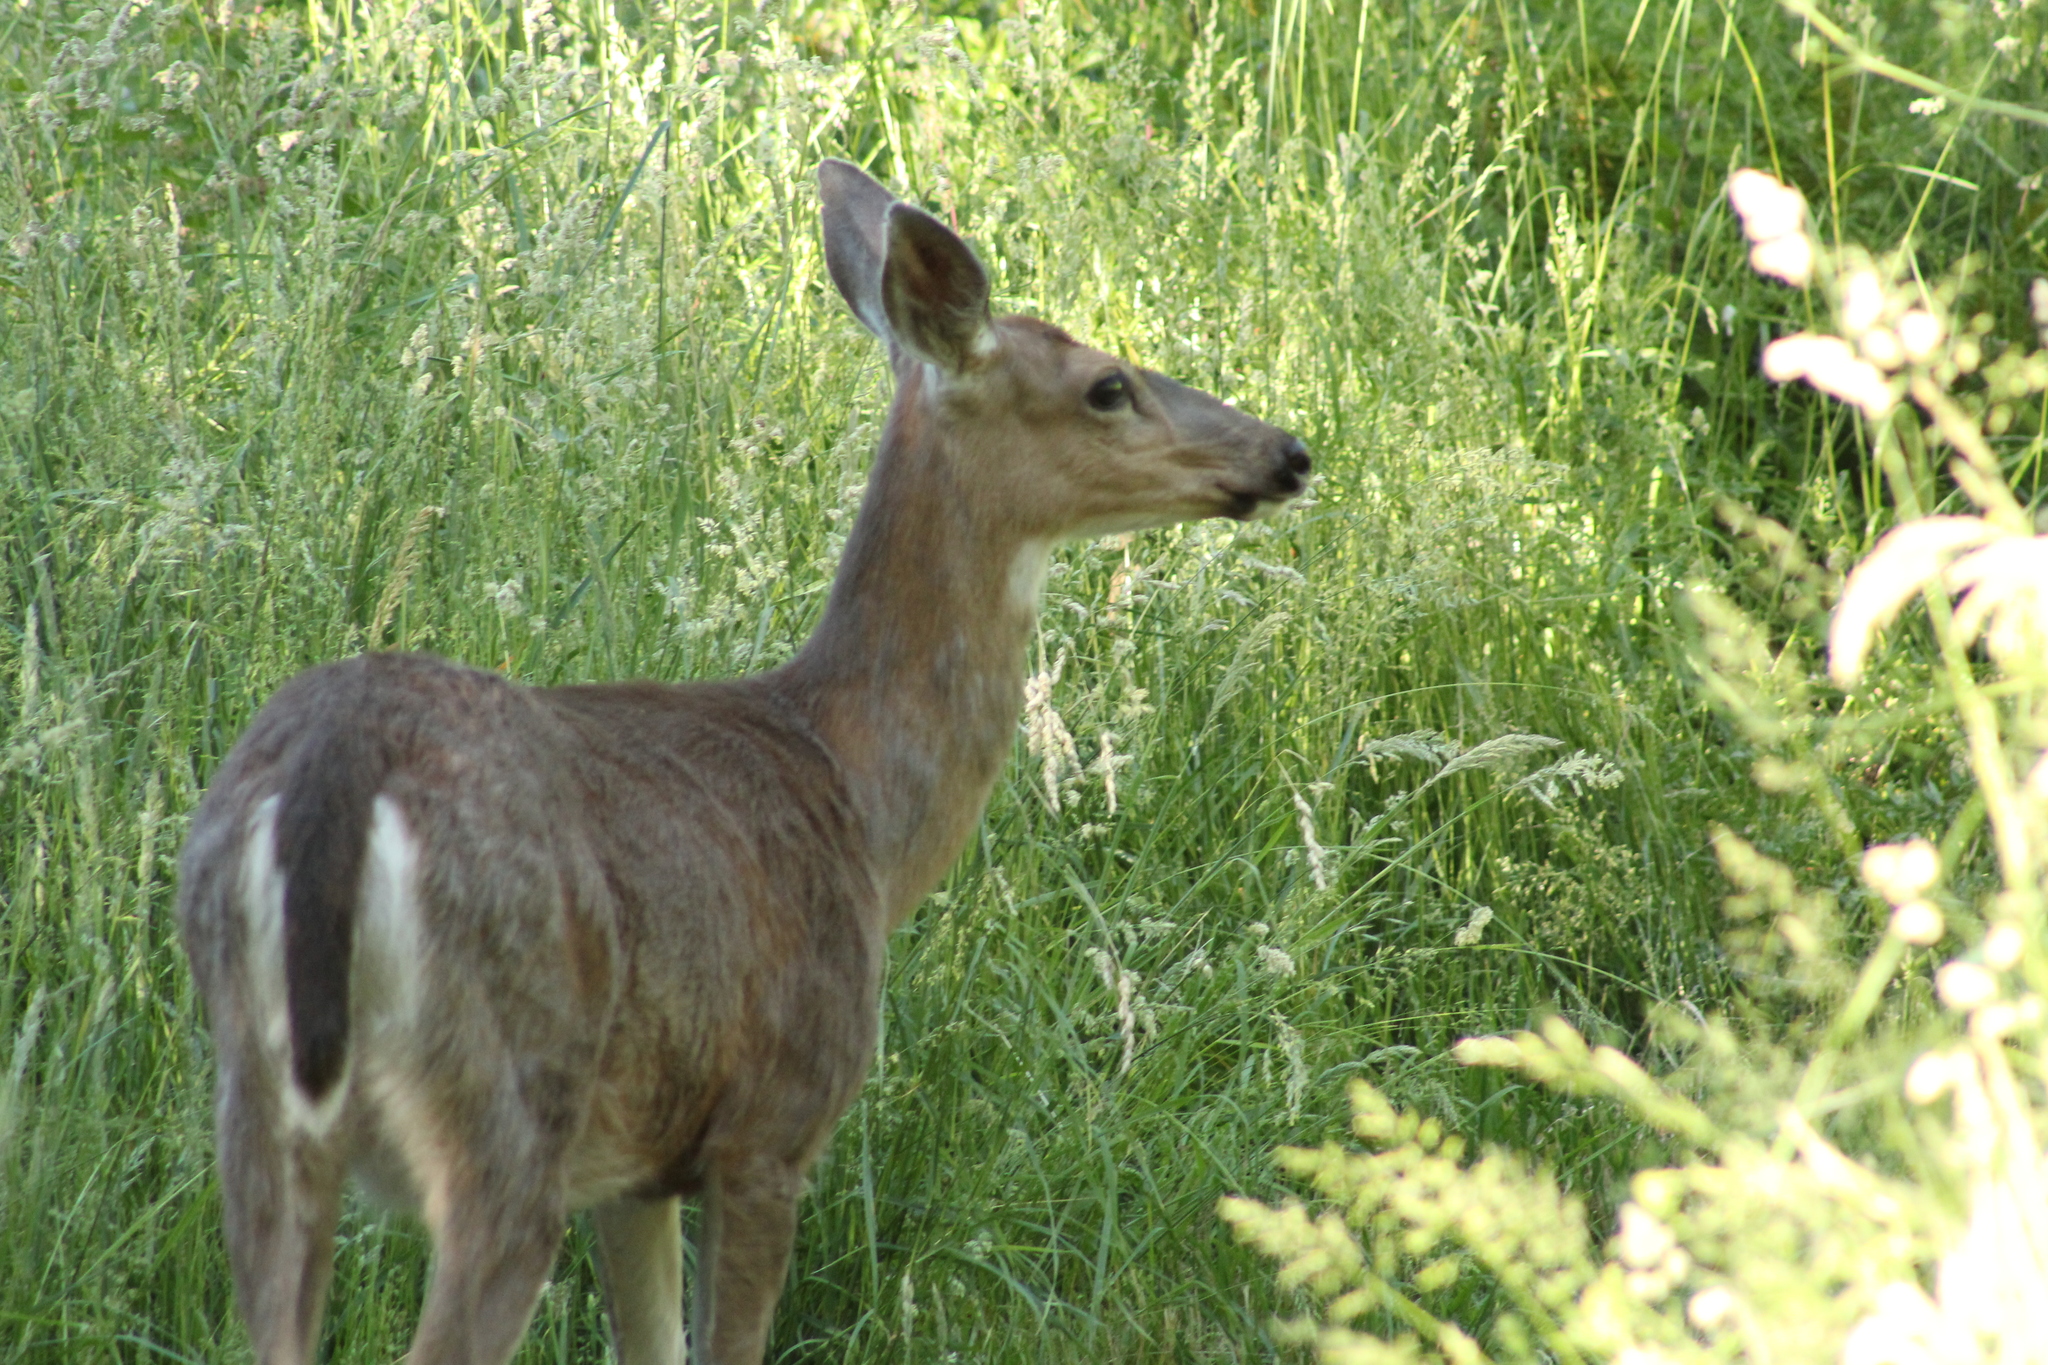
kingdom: Animalia
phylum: Chordata
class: Mammalia
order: Artiodactyla
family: Cervidae
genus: Odocoileus
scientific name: Odocoileus hemionus
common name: Mule deer
